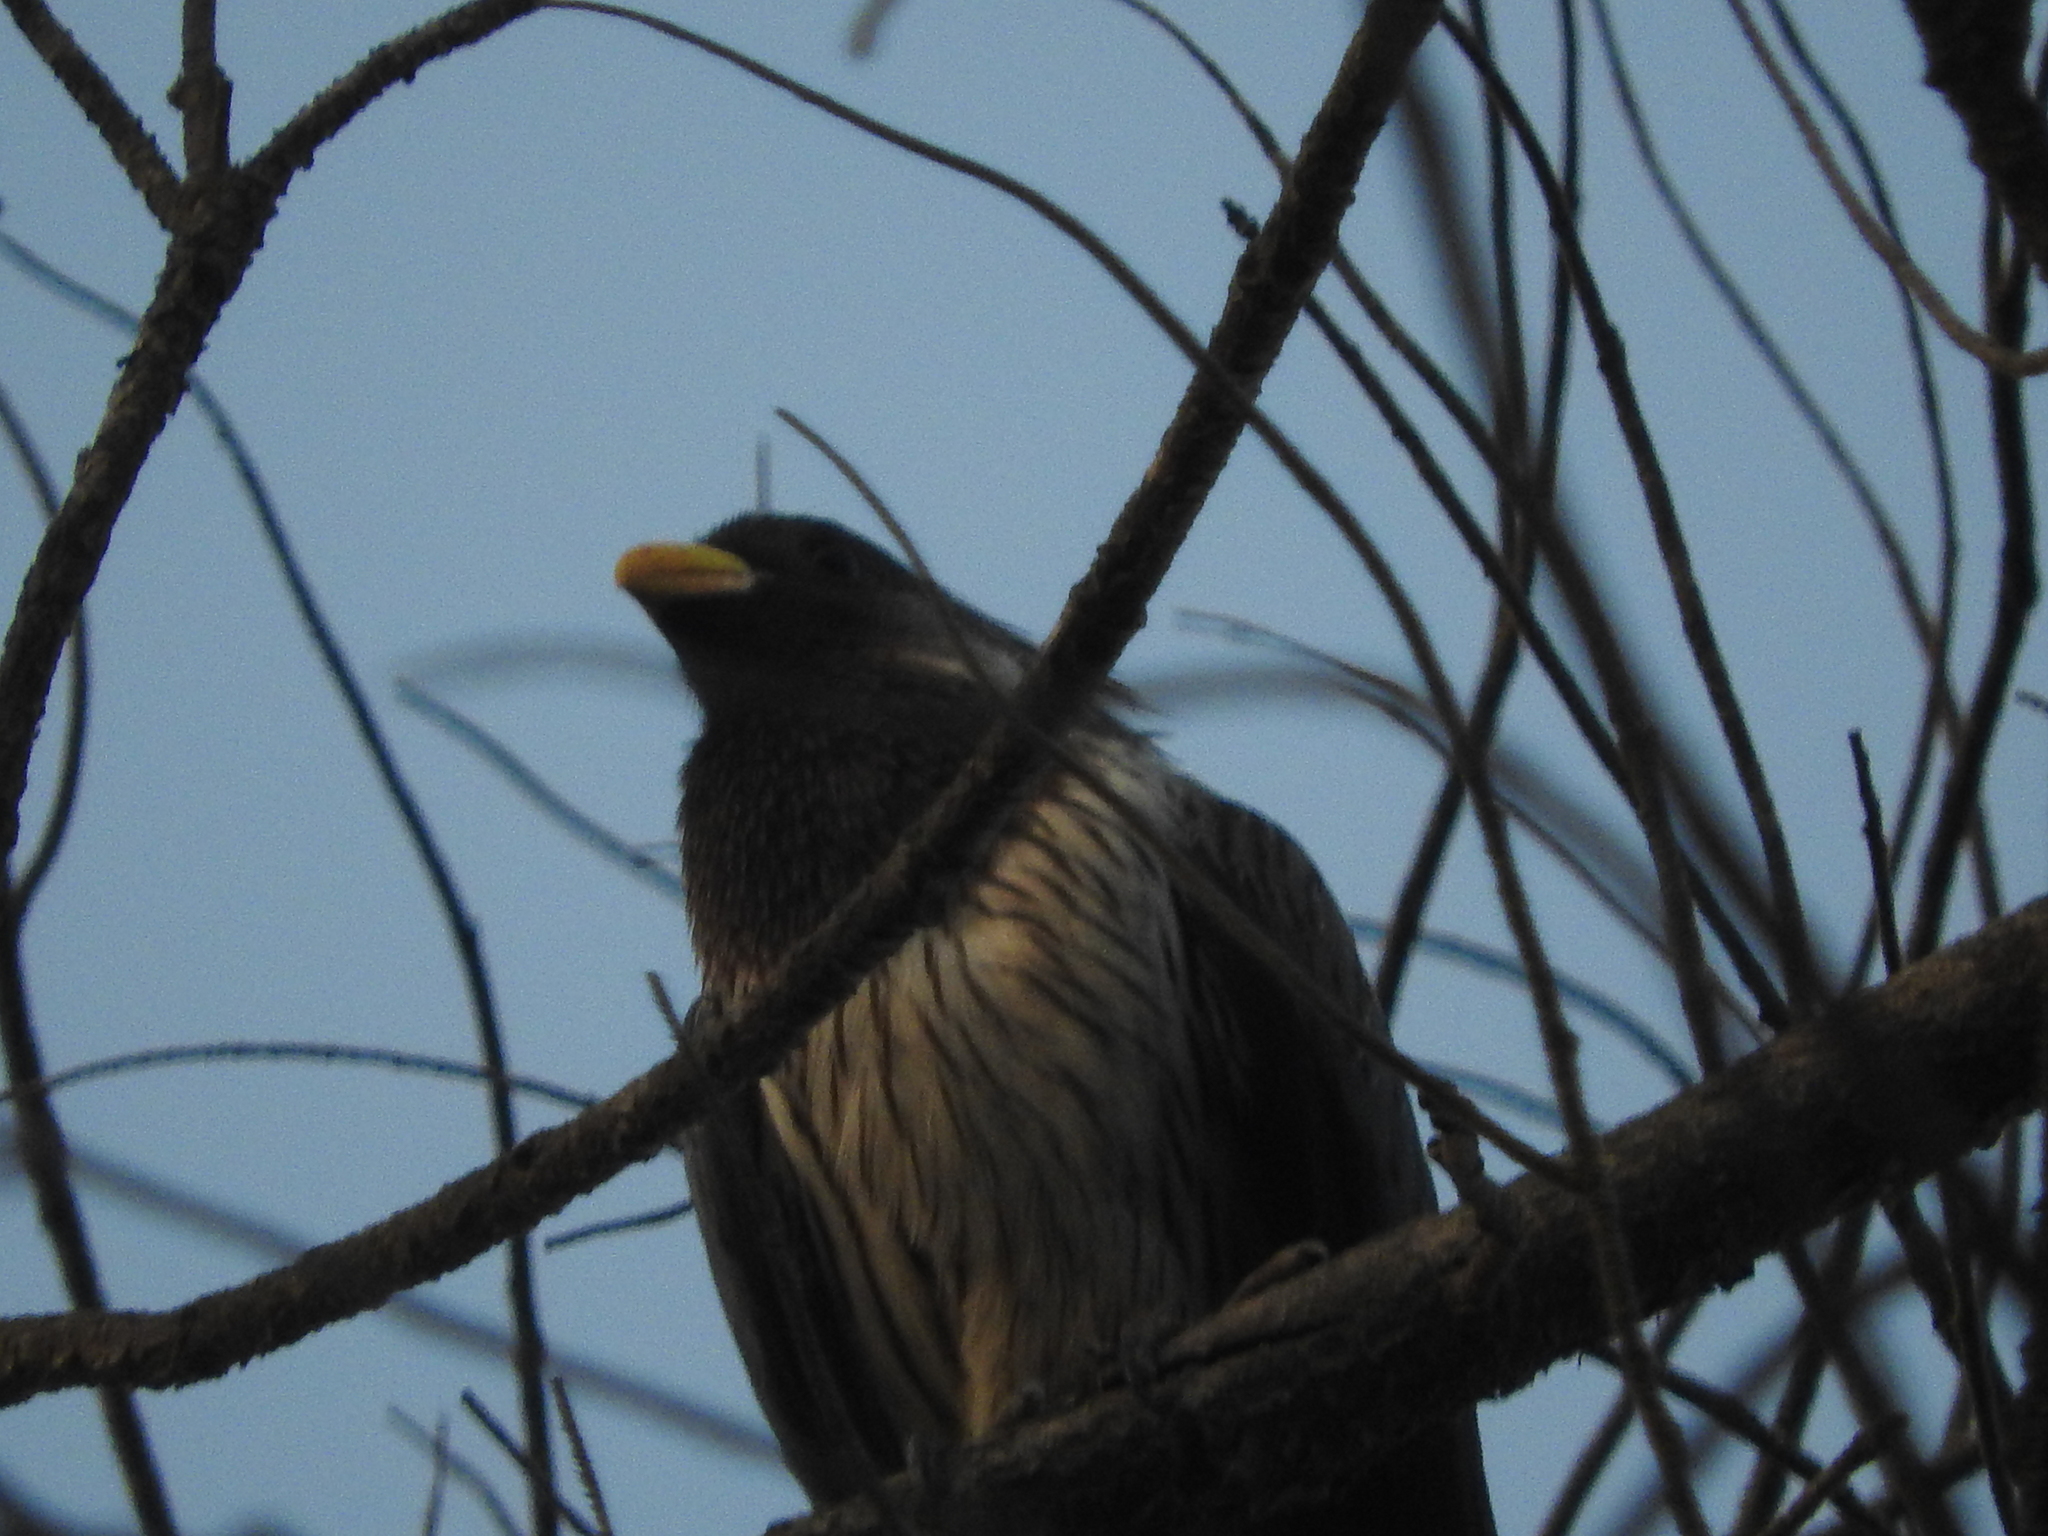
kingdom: Animalia
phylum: Chordata
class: Aves
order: Musophagiformes
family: Musophagidae
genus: Crinifer
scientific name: Crinifer piscator
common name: Western plantain-eater
